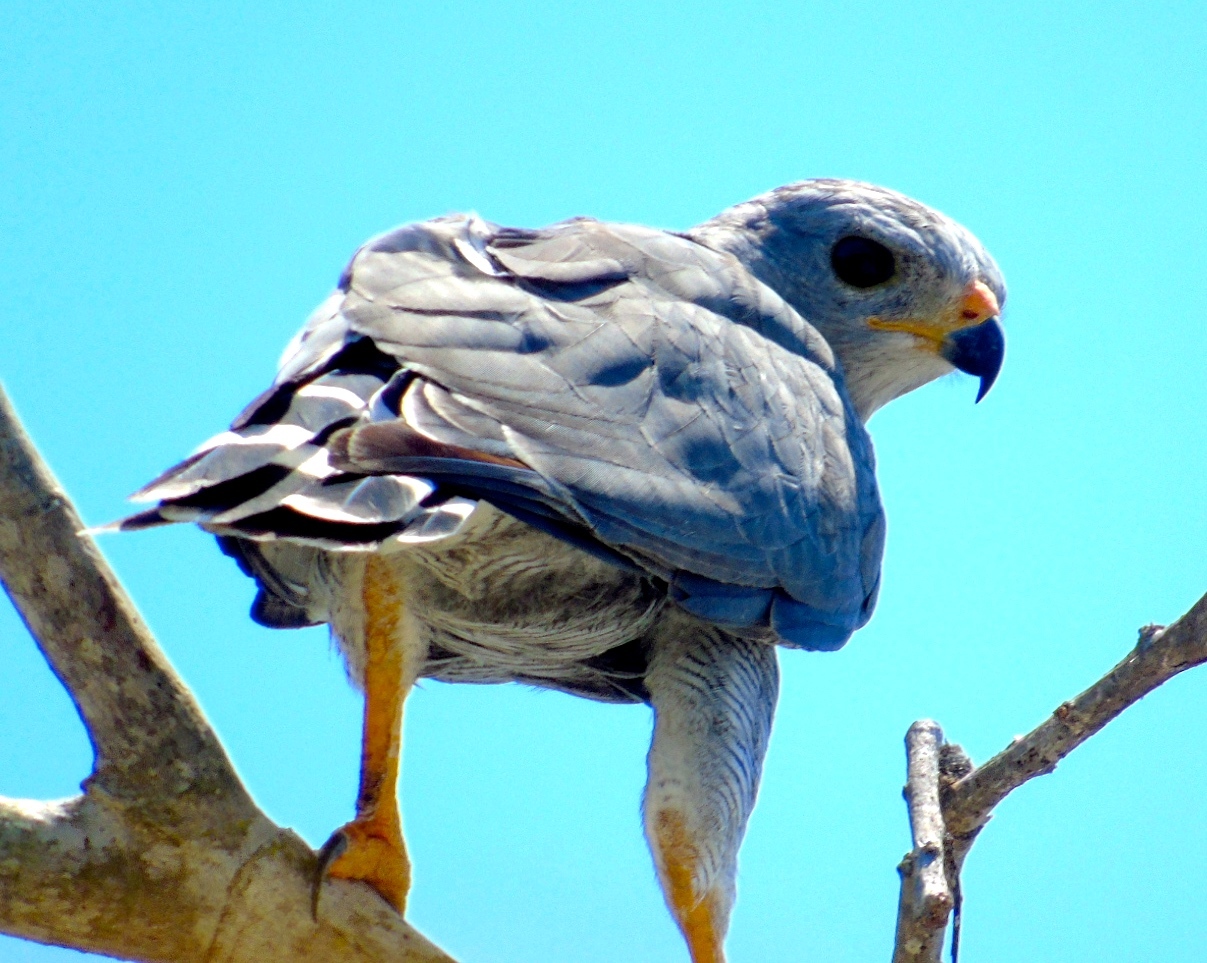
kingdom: Animalia
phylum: Chordata
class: Aves
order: Accipitriformes
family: Accipitridae
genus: Buteo
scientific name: Buteo nitidus
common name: Grey-lined hawk
